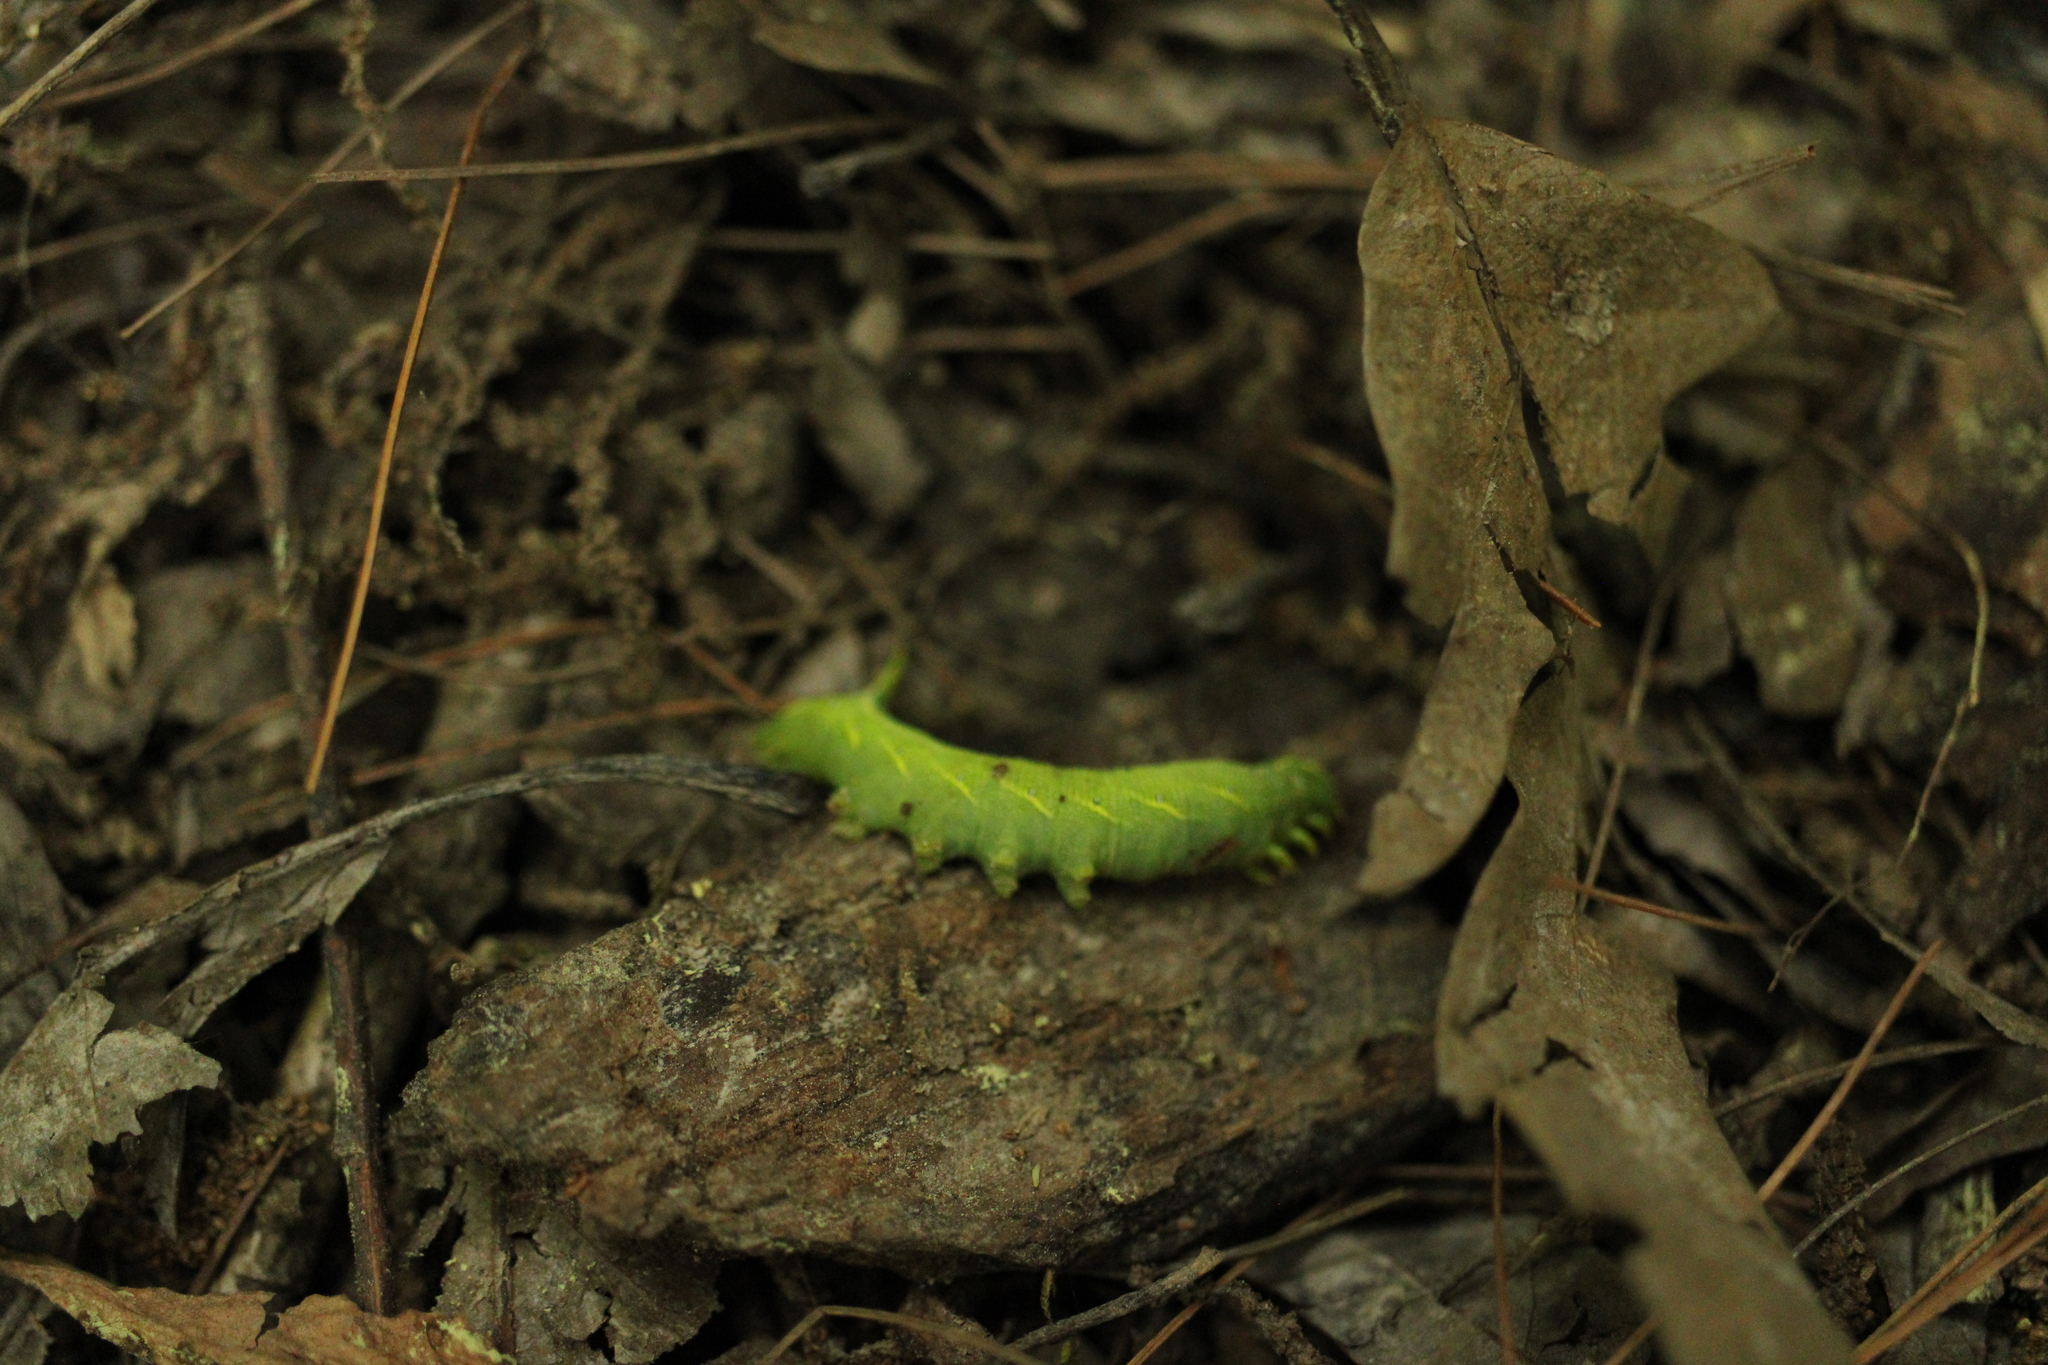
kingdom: Animalia
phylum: Arthropoda
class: Insecta
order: Lepidoptera
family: Sphingidae
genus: Deidamia
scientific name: Deidamia inscriptum
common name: Lettered sphinx
